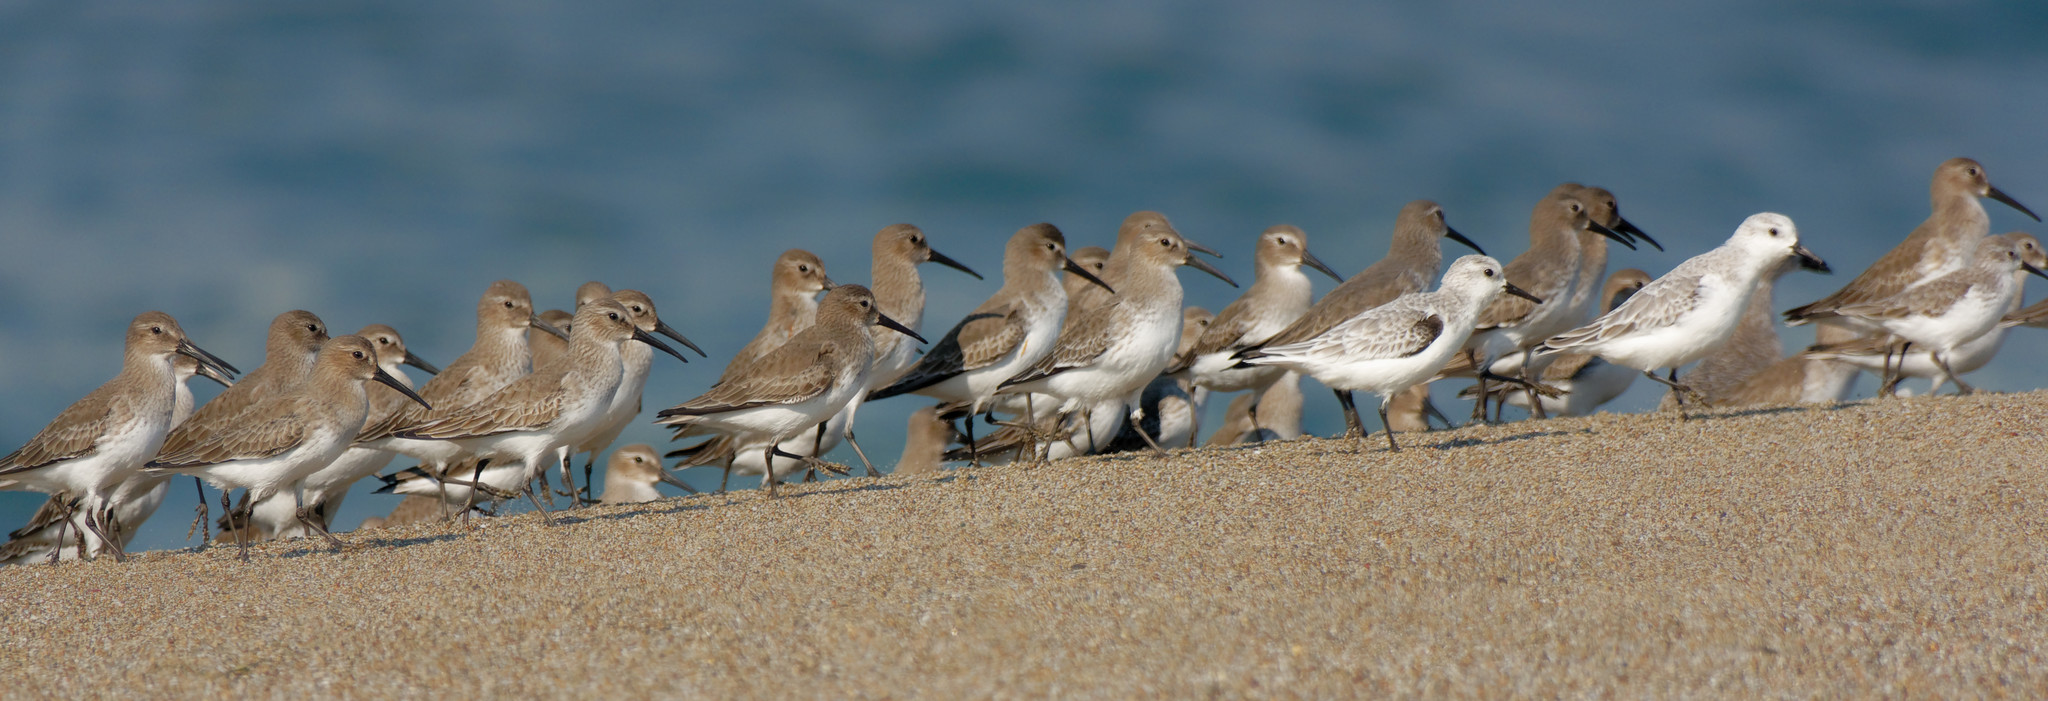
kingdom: Animalia
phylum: Chordata
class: Aves
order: Charadriiformes
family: Scolopacidae
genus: Calidris
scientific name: Calidris alpina
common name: Dunlin
